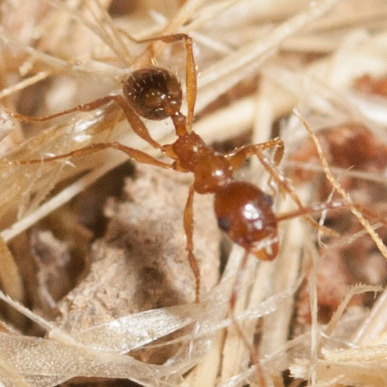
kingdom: Animalia
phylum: Arthropoda
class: Insecta
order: Hymenoptera
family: Formicidae
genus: Aphaenogaster
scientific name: Aphaenogaster occidentalis
